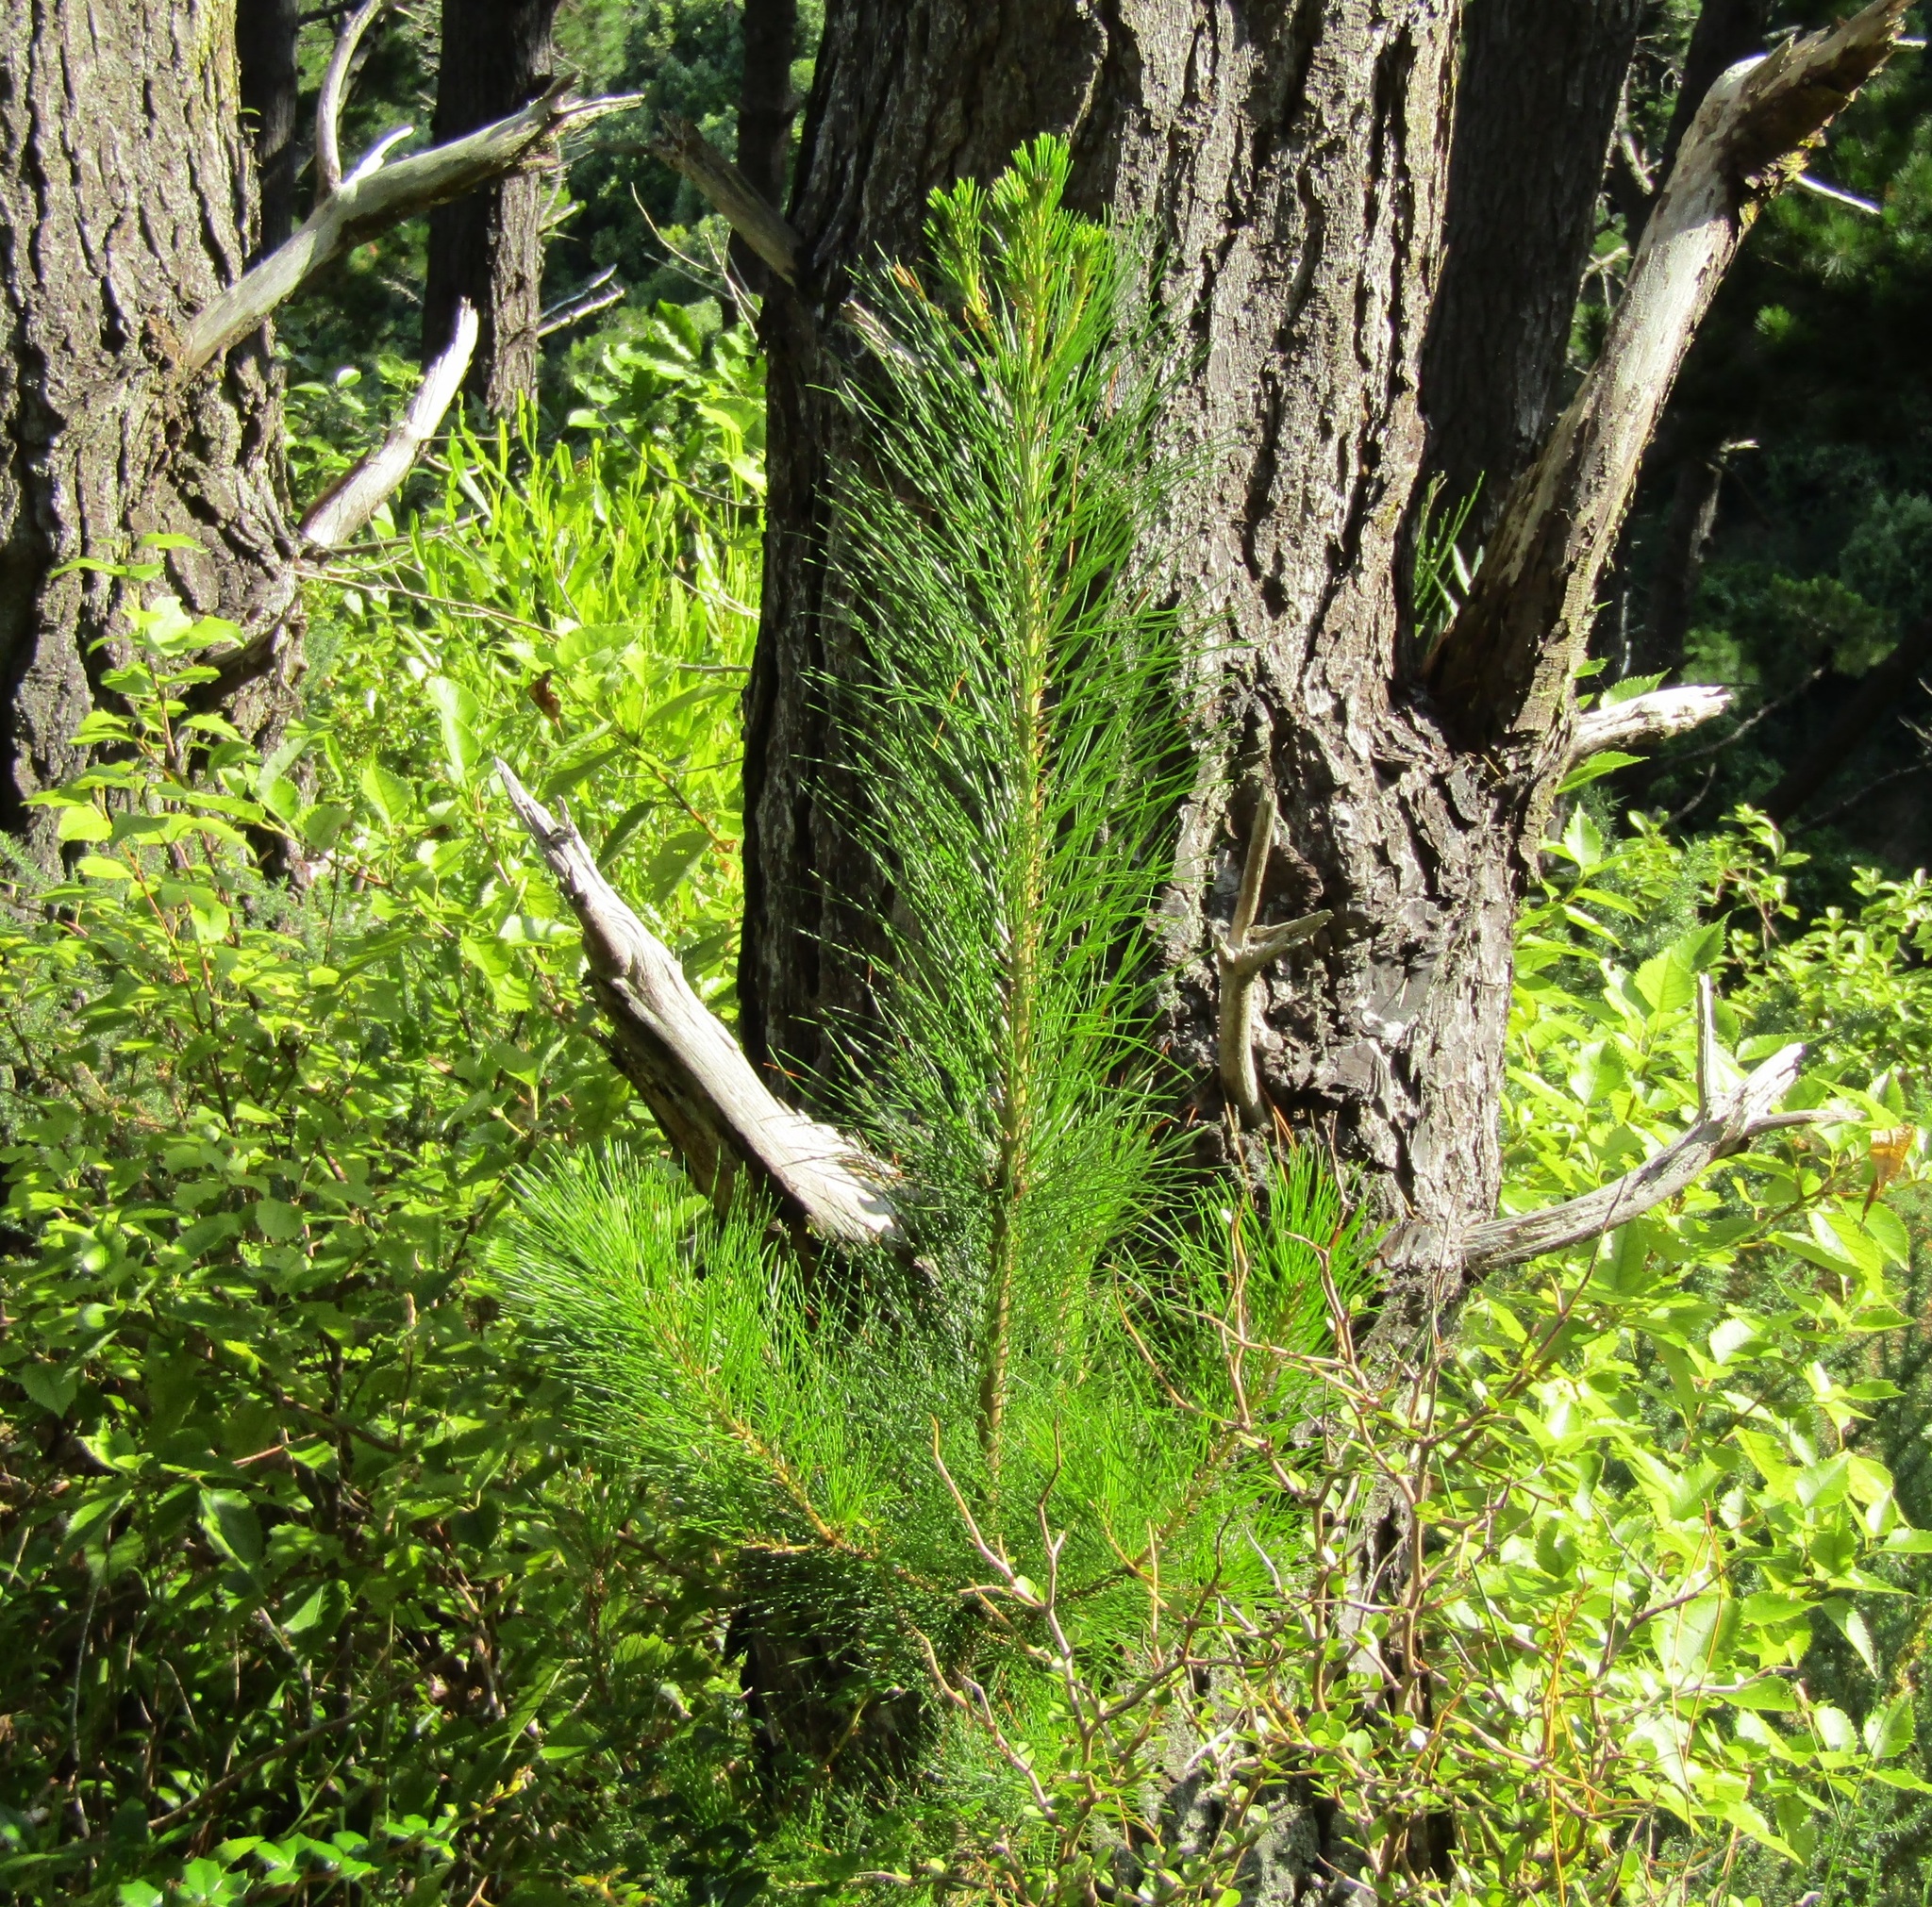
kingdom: Plantae
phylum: Tracheophyta
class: Pinopsida
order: Pinales
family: Pinaceae
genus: Pinus
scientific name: Pinus radiata
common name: Monterey pine
